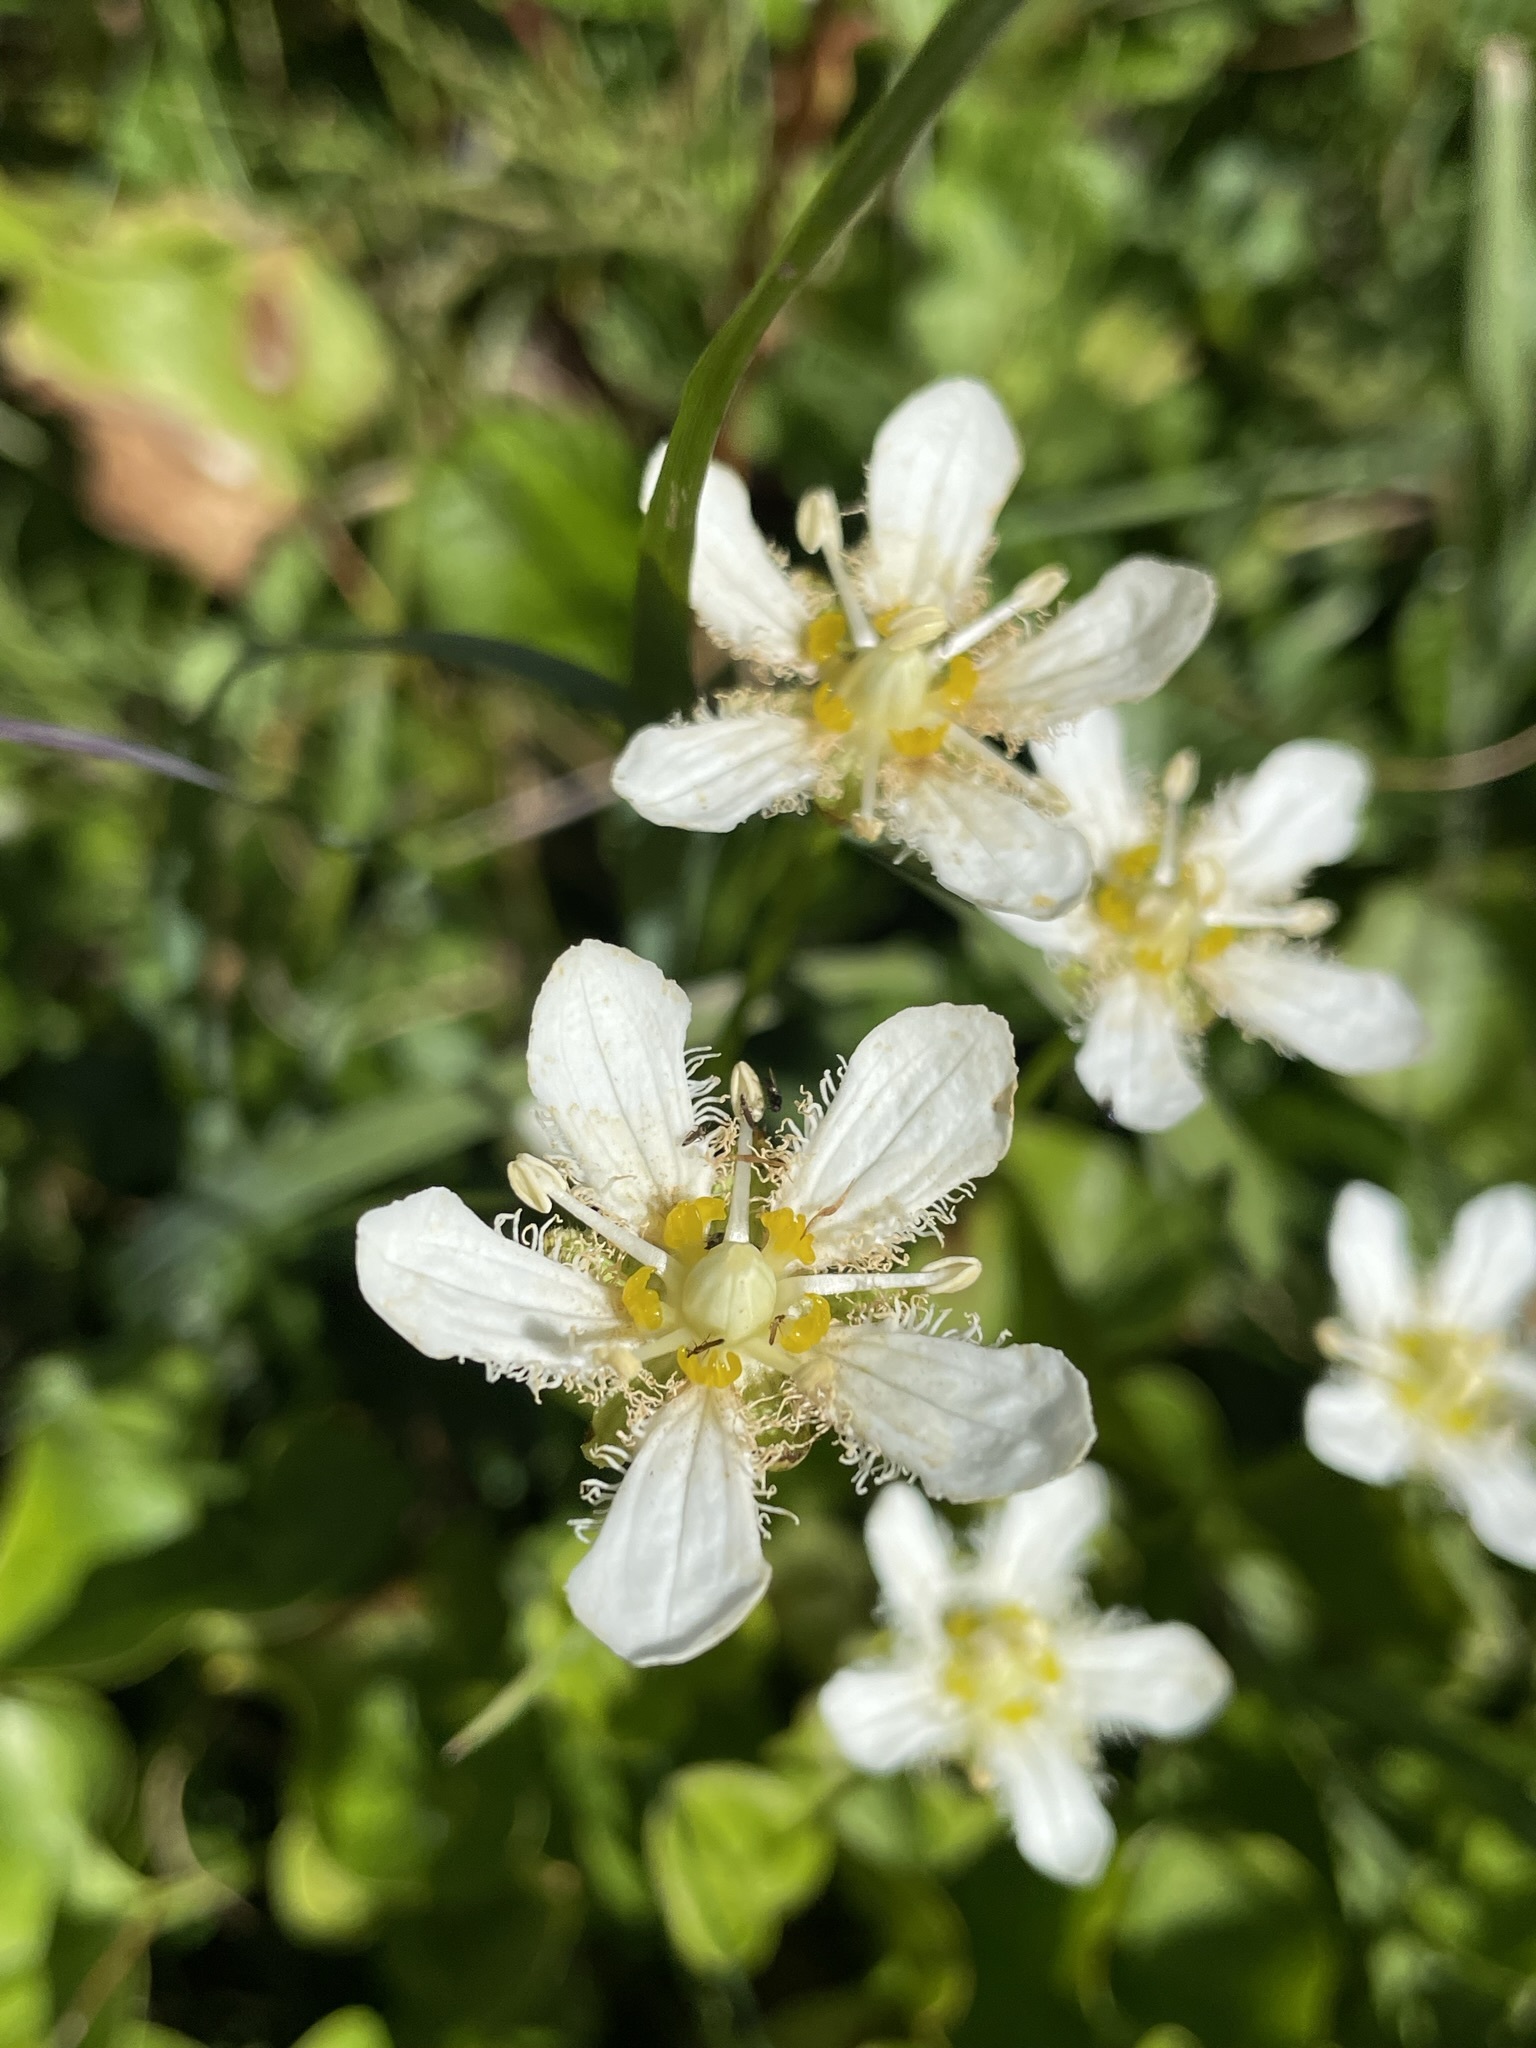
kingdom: Plantae
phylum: Tracheophyta
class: Magnoliopsida
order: Celastrales
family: Parnassiaceae
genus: Parnassia
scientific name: Parnassia fimbriata
